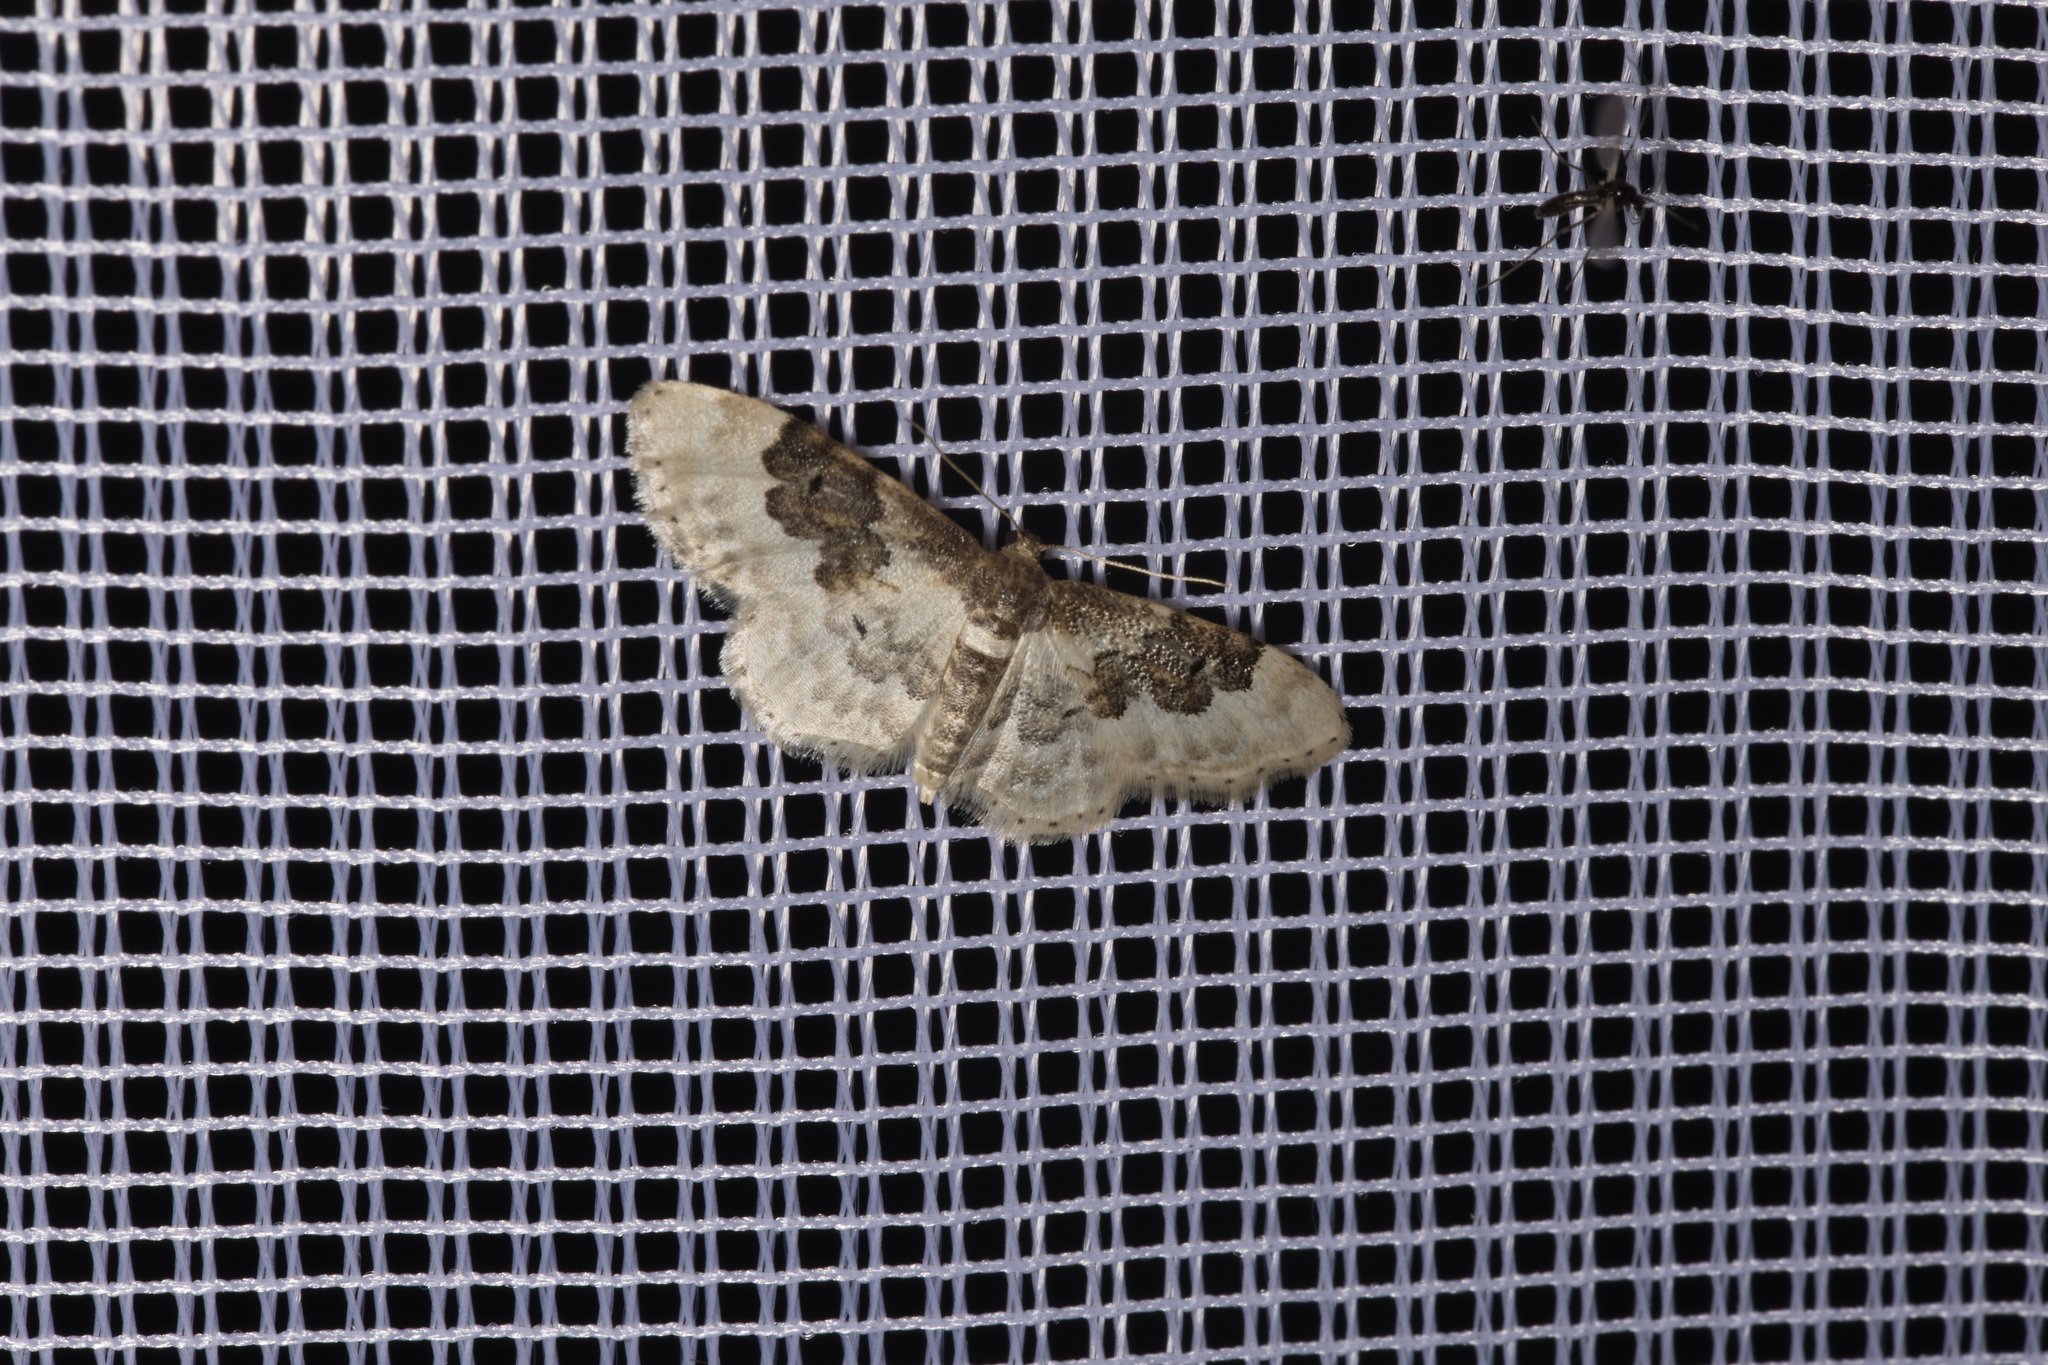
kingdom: Animalia
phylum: Arthropoda
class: Insecta
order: Lepidoptera
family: Geometridae
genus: Idaea
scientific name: Idaea rusticata
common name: Least carpet
